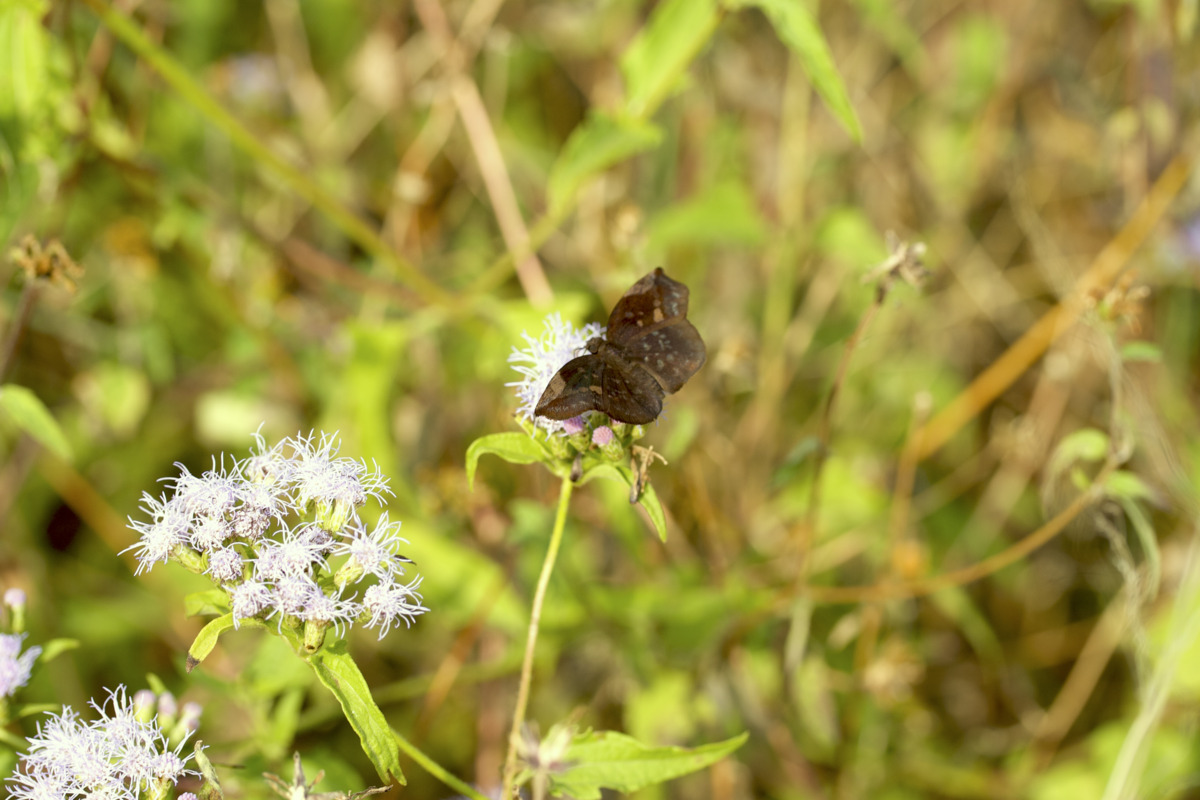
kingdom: Animalia
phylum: Arthropoda
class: Insecta
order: Lepidoptera
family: Hesperiidae
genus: Achlyodes
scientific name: Achlyodes thraso
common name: Sickle-winged skipper
